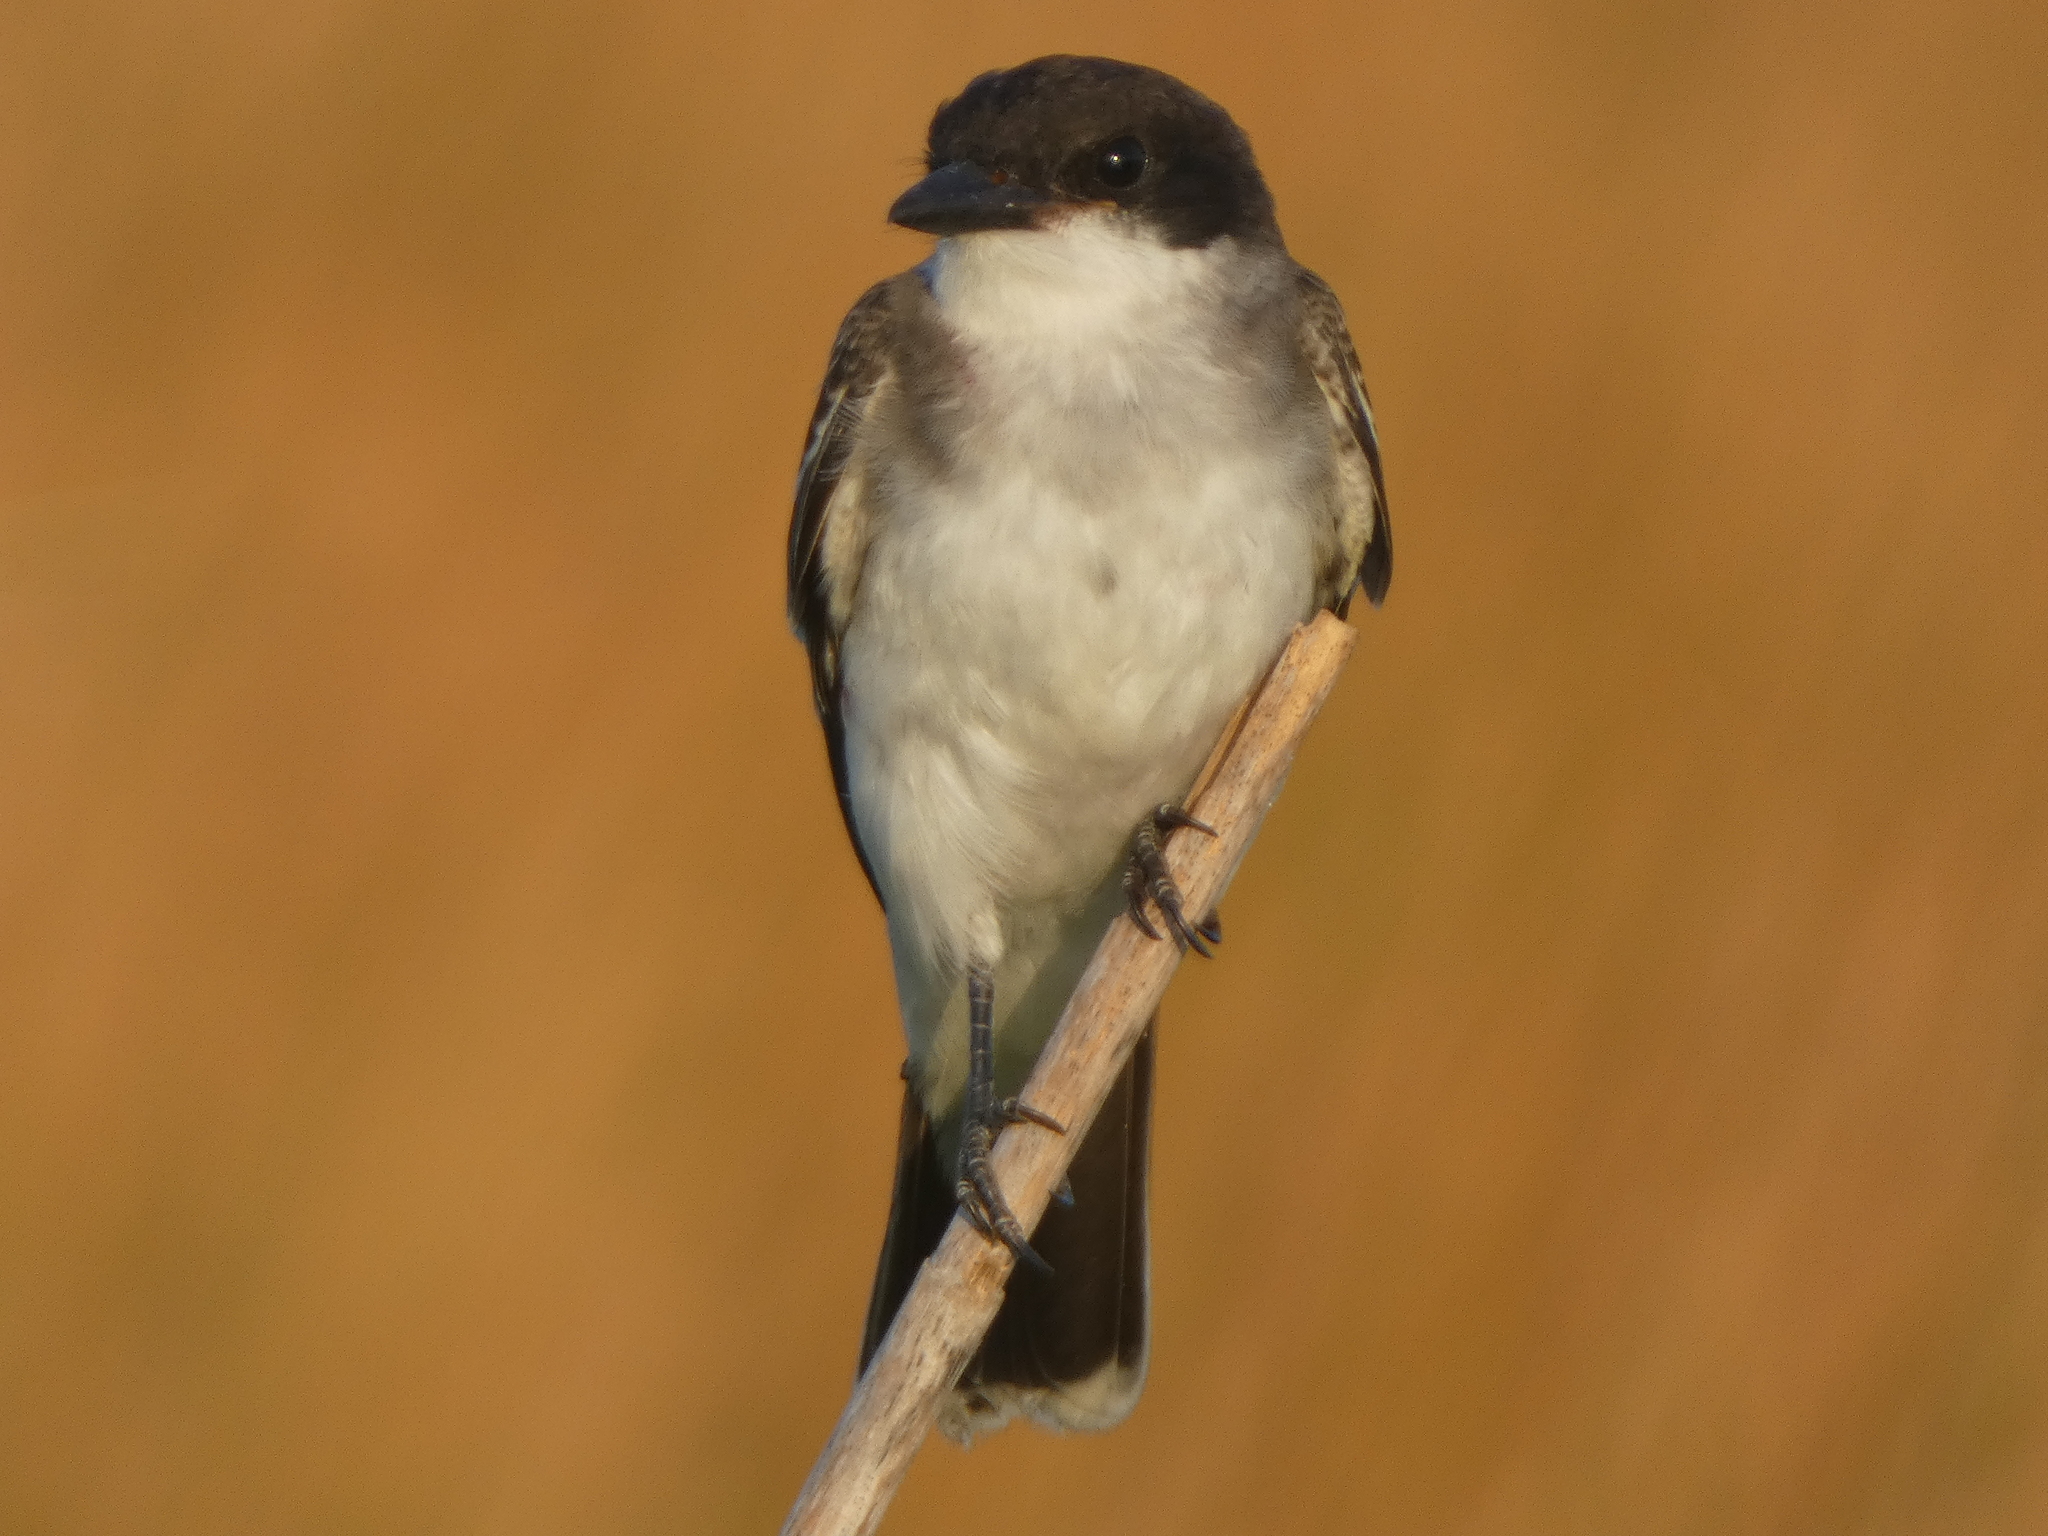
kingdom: Animalia
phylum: Chordata
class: Aves
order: Passeriformes
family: Tyrannidae
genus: Tyrannus
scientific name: Tyrannus tyrannus
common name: Eastern kingbird
